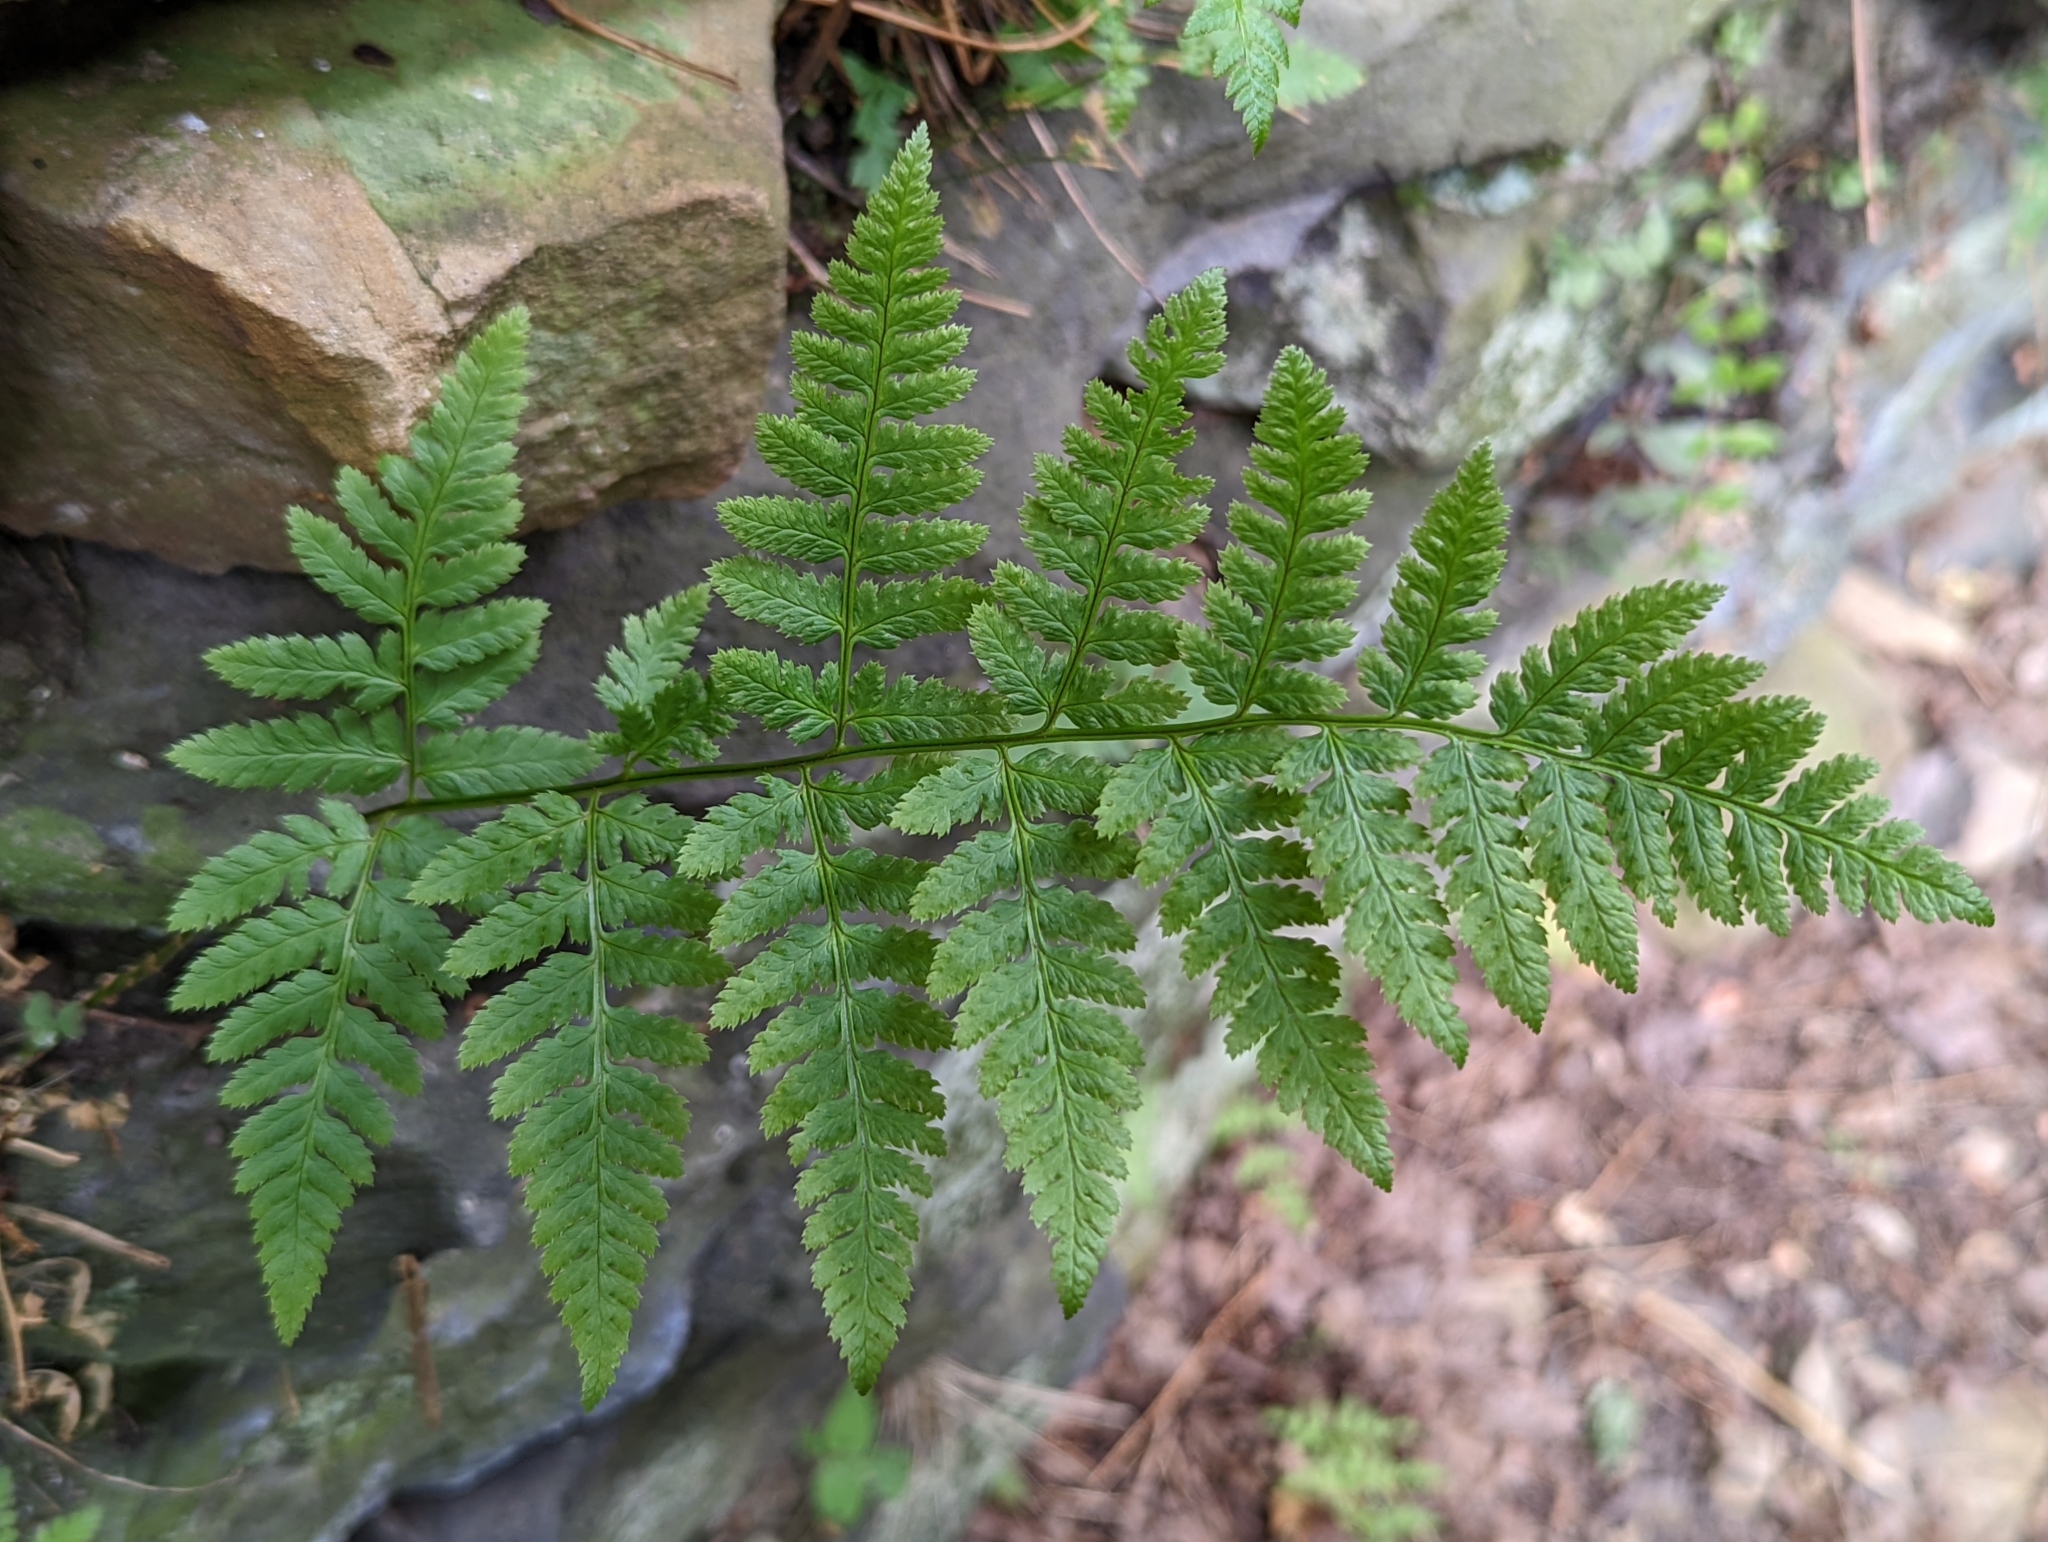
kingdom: Plantae
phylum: Tracheophyta
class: Polypodiopsida
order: Polypodiales
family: Dryopteridaceae
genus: Dryopteris
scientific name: Dryopteris carthusiana
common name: Narrow buckler-fern
